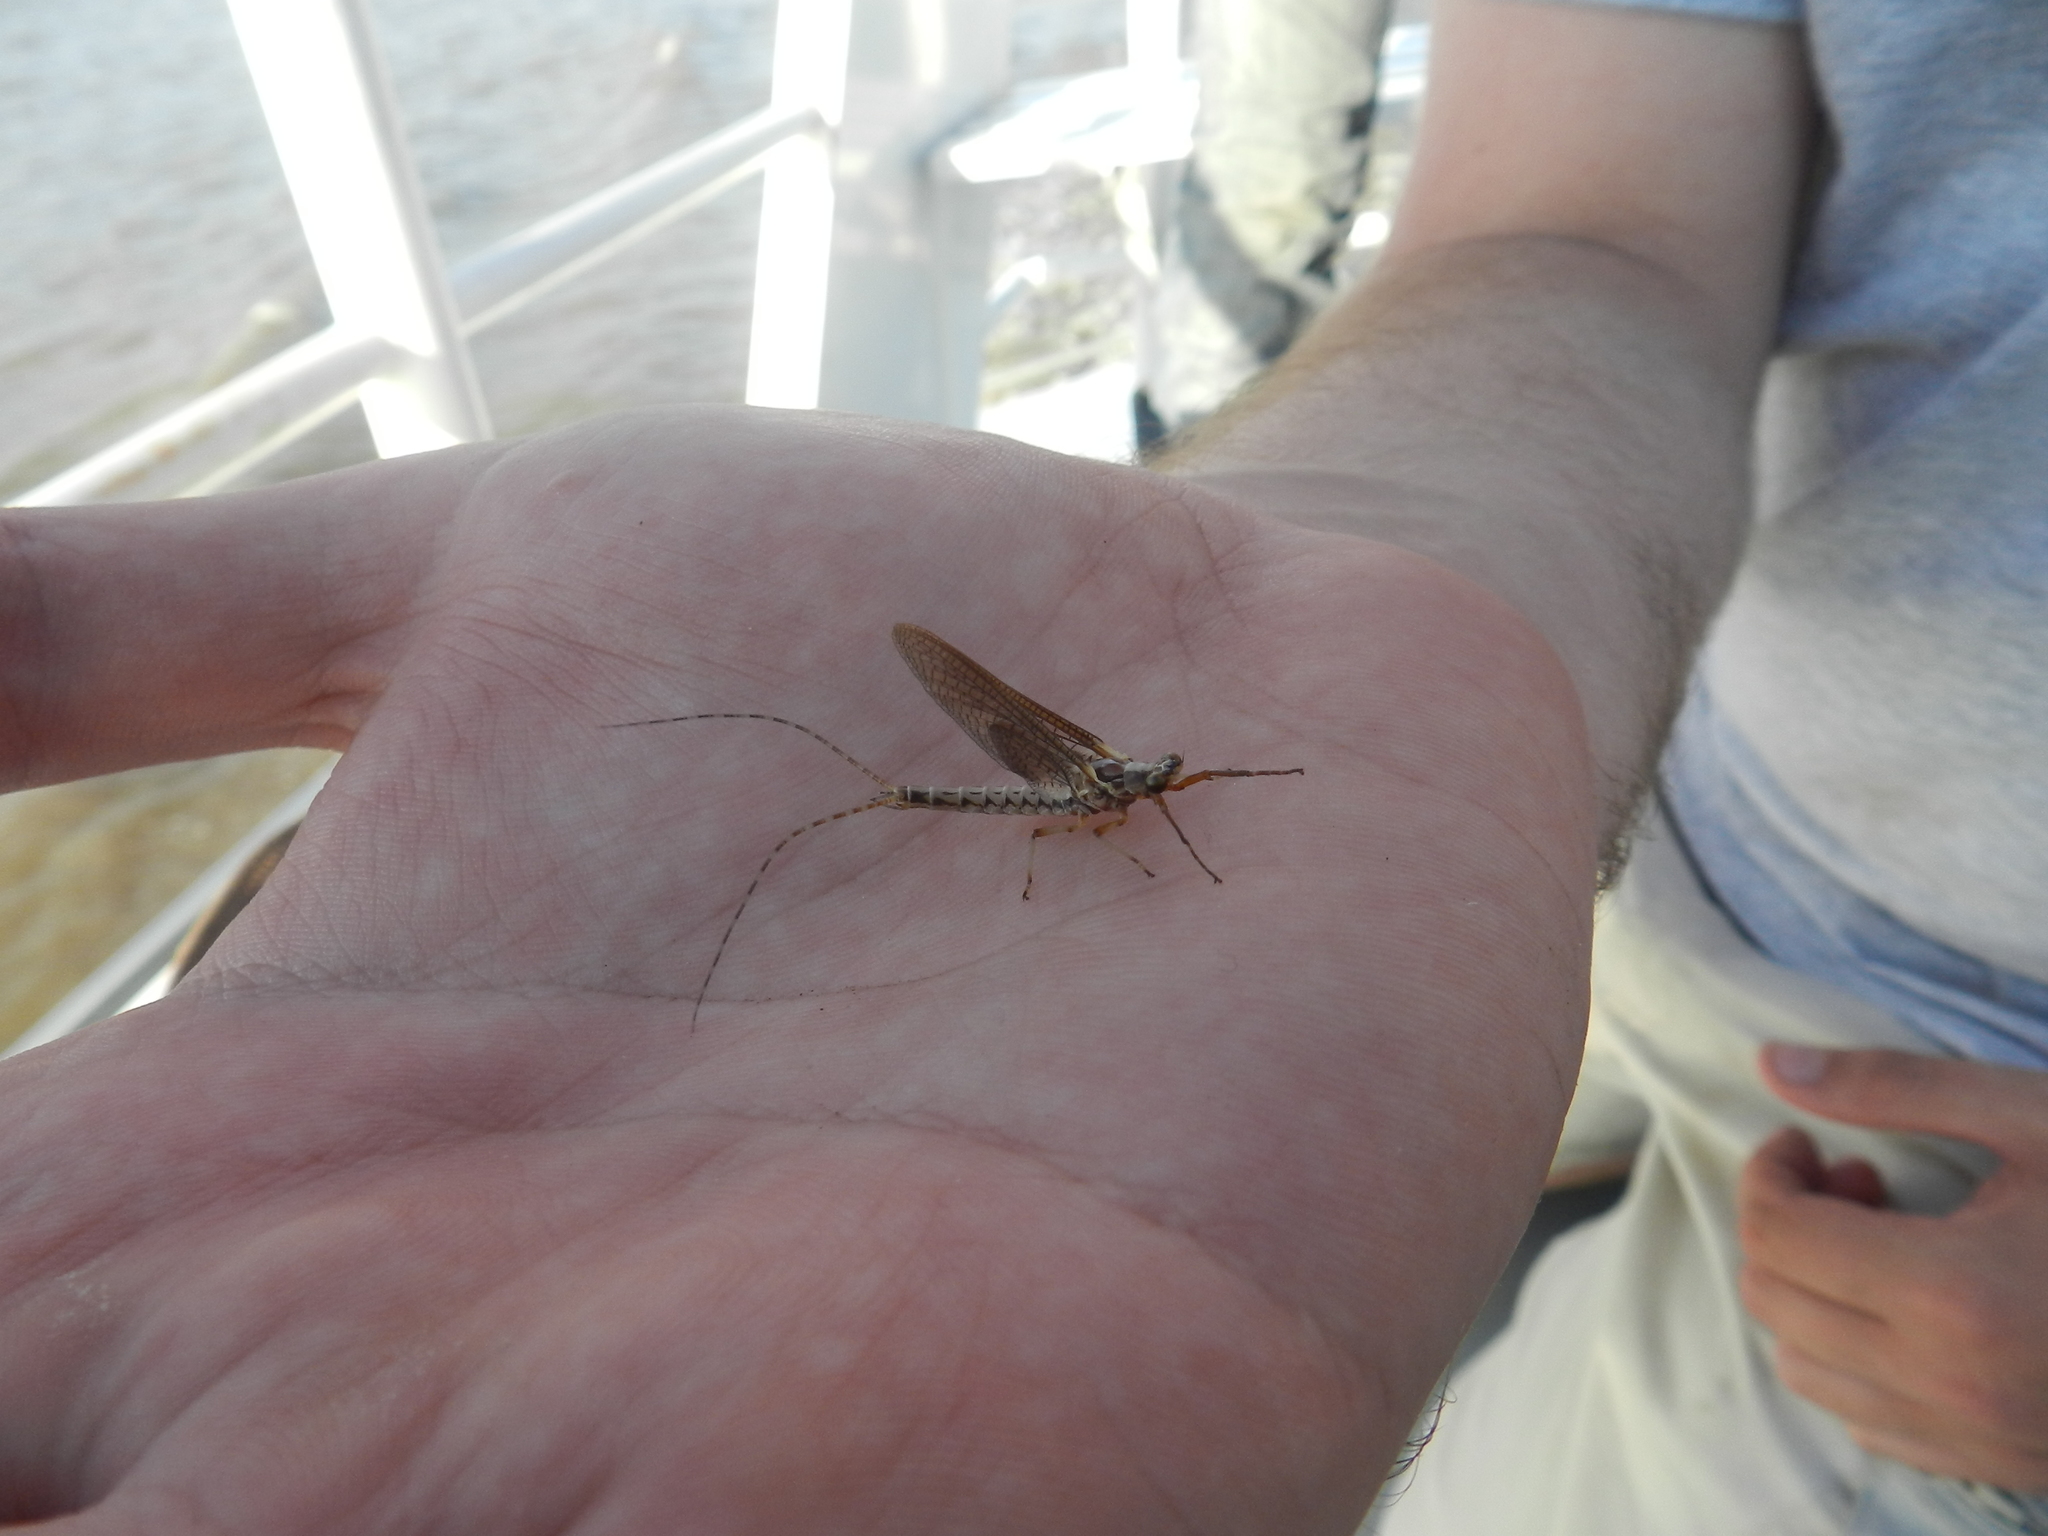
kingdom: Animalia
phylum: Arthropoda
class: Insecta
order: Ephemeroptera
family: Ephemeridae
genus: Hexagenia
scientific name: Hexagenia albivitta
